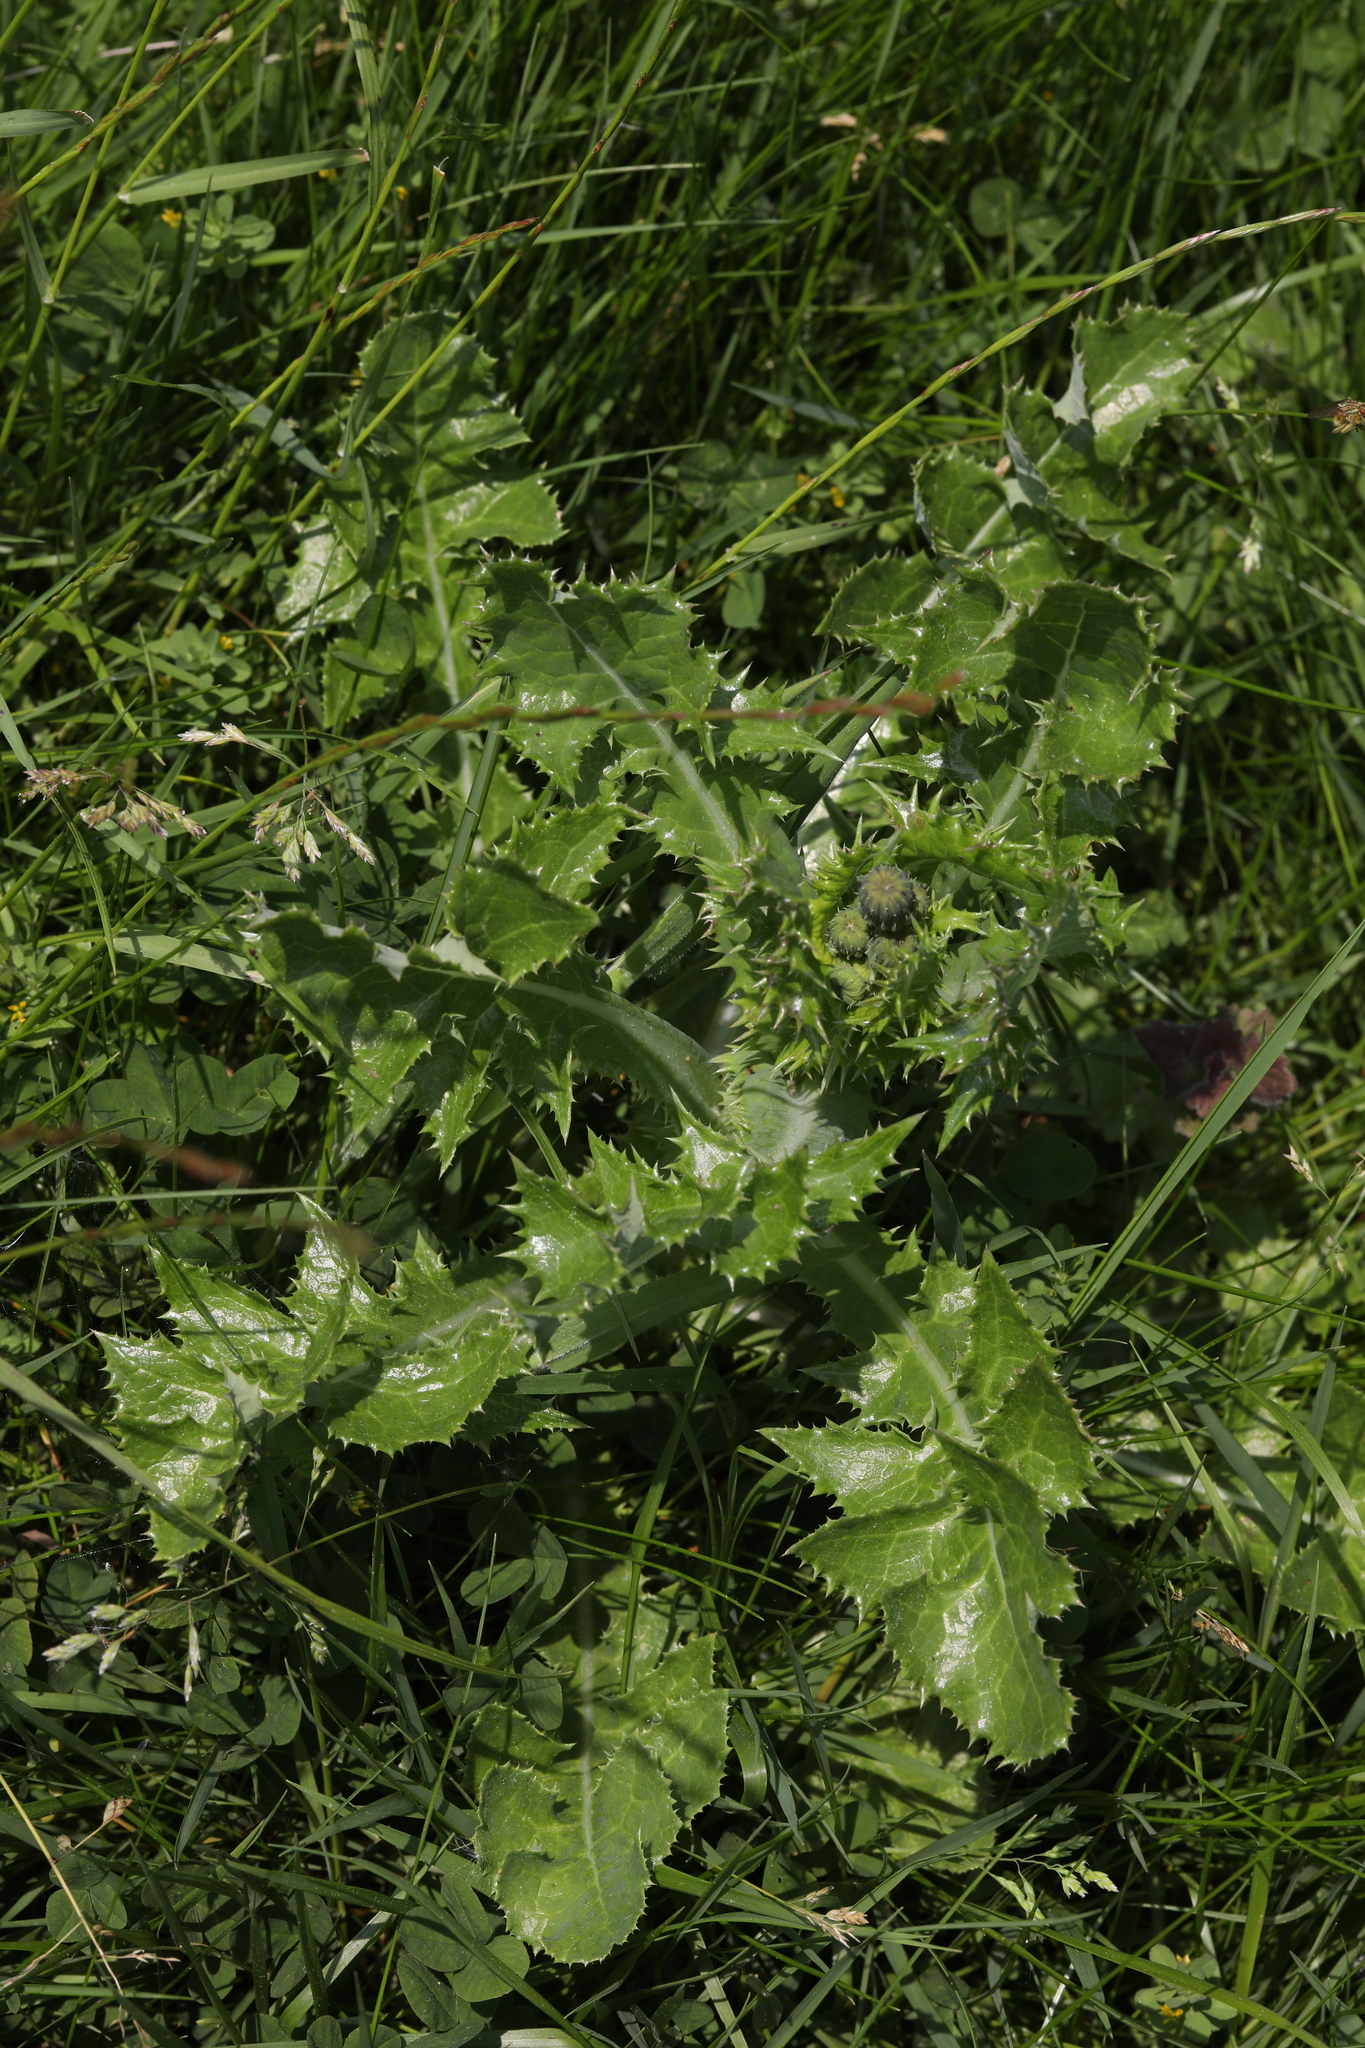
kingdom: Plantae
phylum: Tracheophyta
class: Magnoliopsida
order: Asterales
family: Asteraceae
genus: Sonchus
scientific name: Sonchus asper
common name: Prickly sow-thistle
